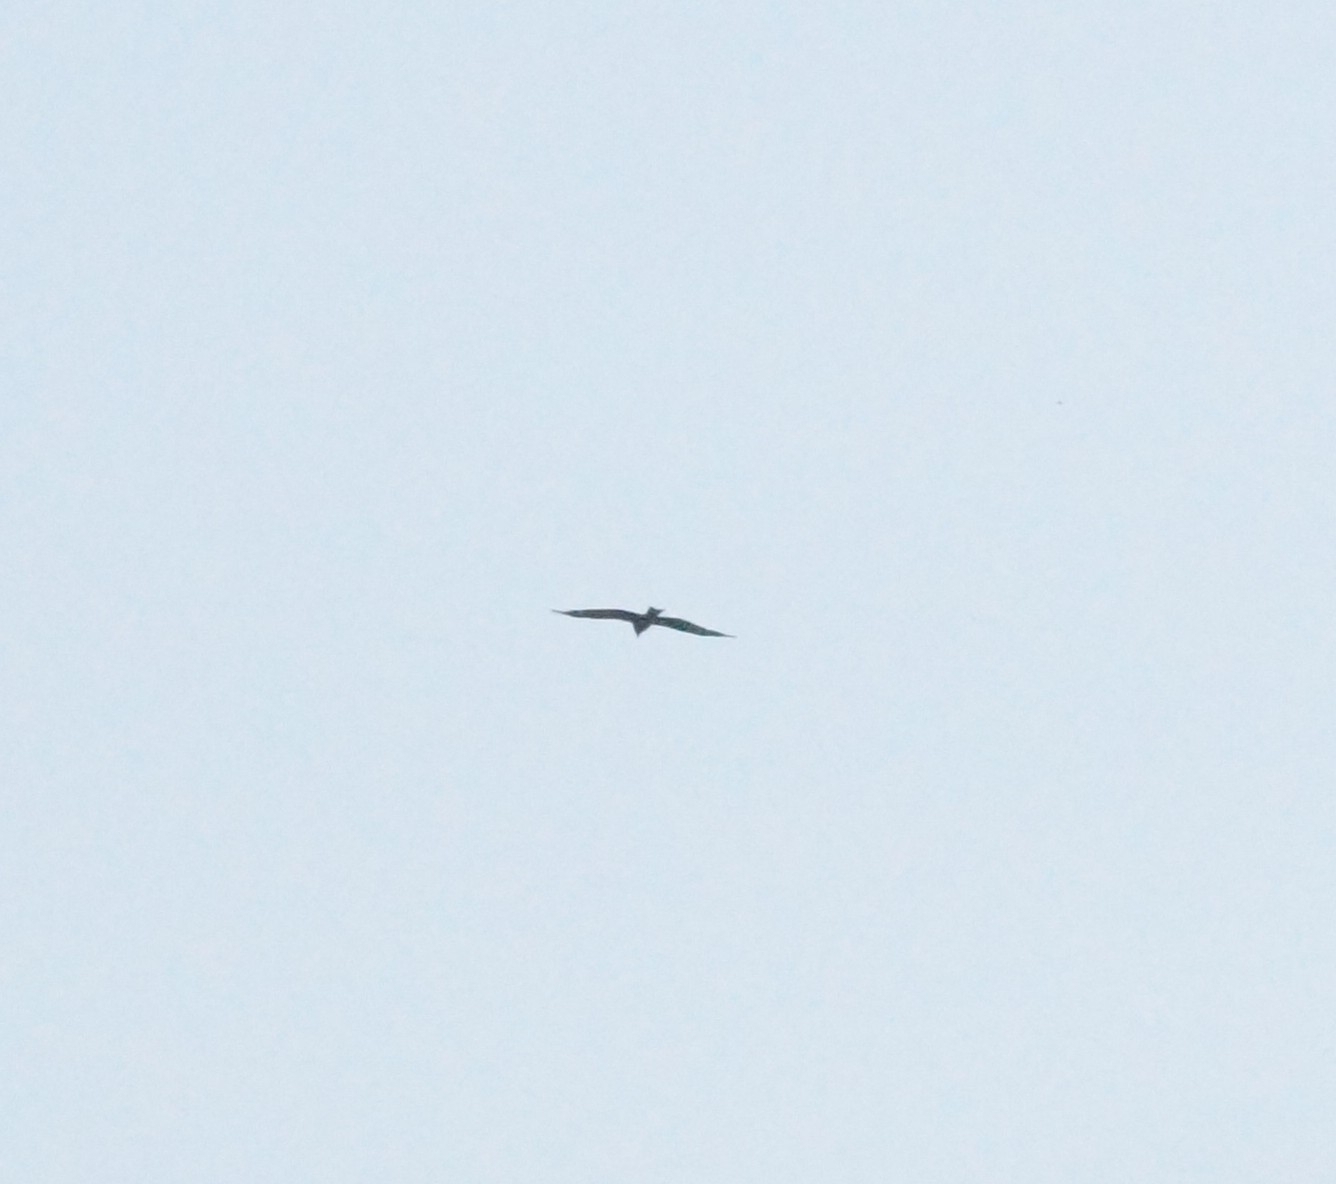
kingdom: Animalia
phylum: Chordata
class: Aves
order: Accipitriformes
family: Accipitridae
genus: Milvus
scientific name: Milvus migrans
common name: Black kite
